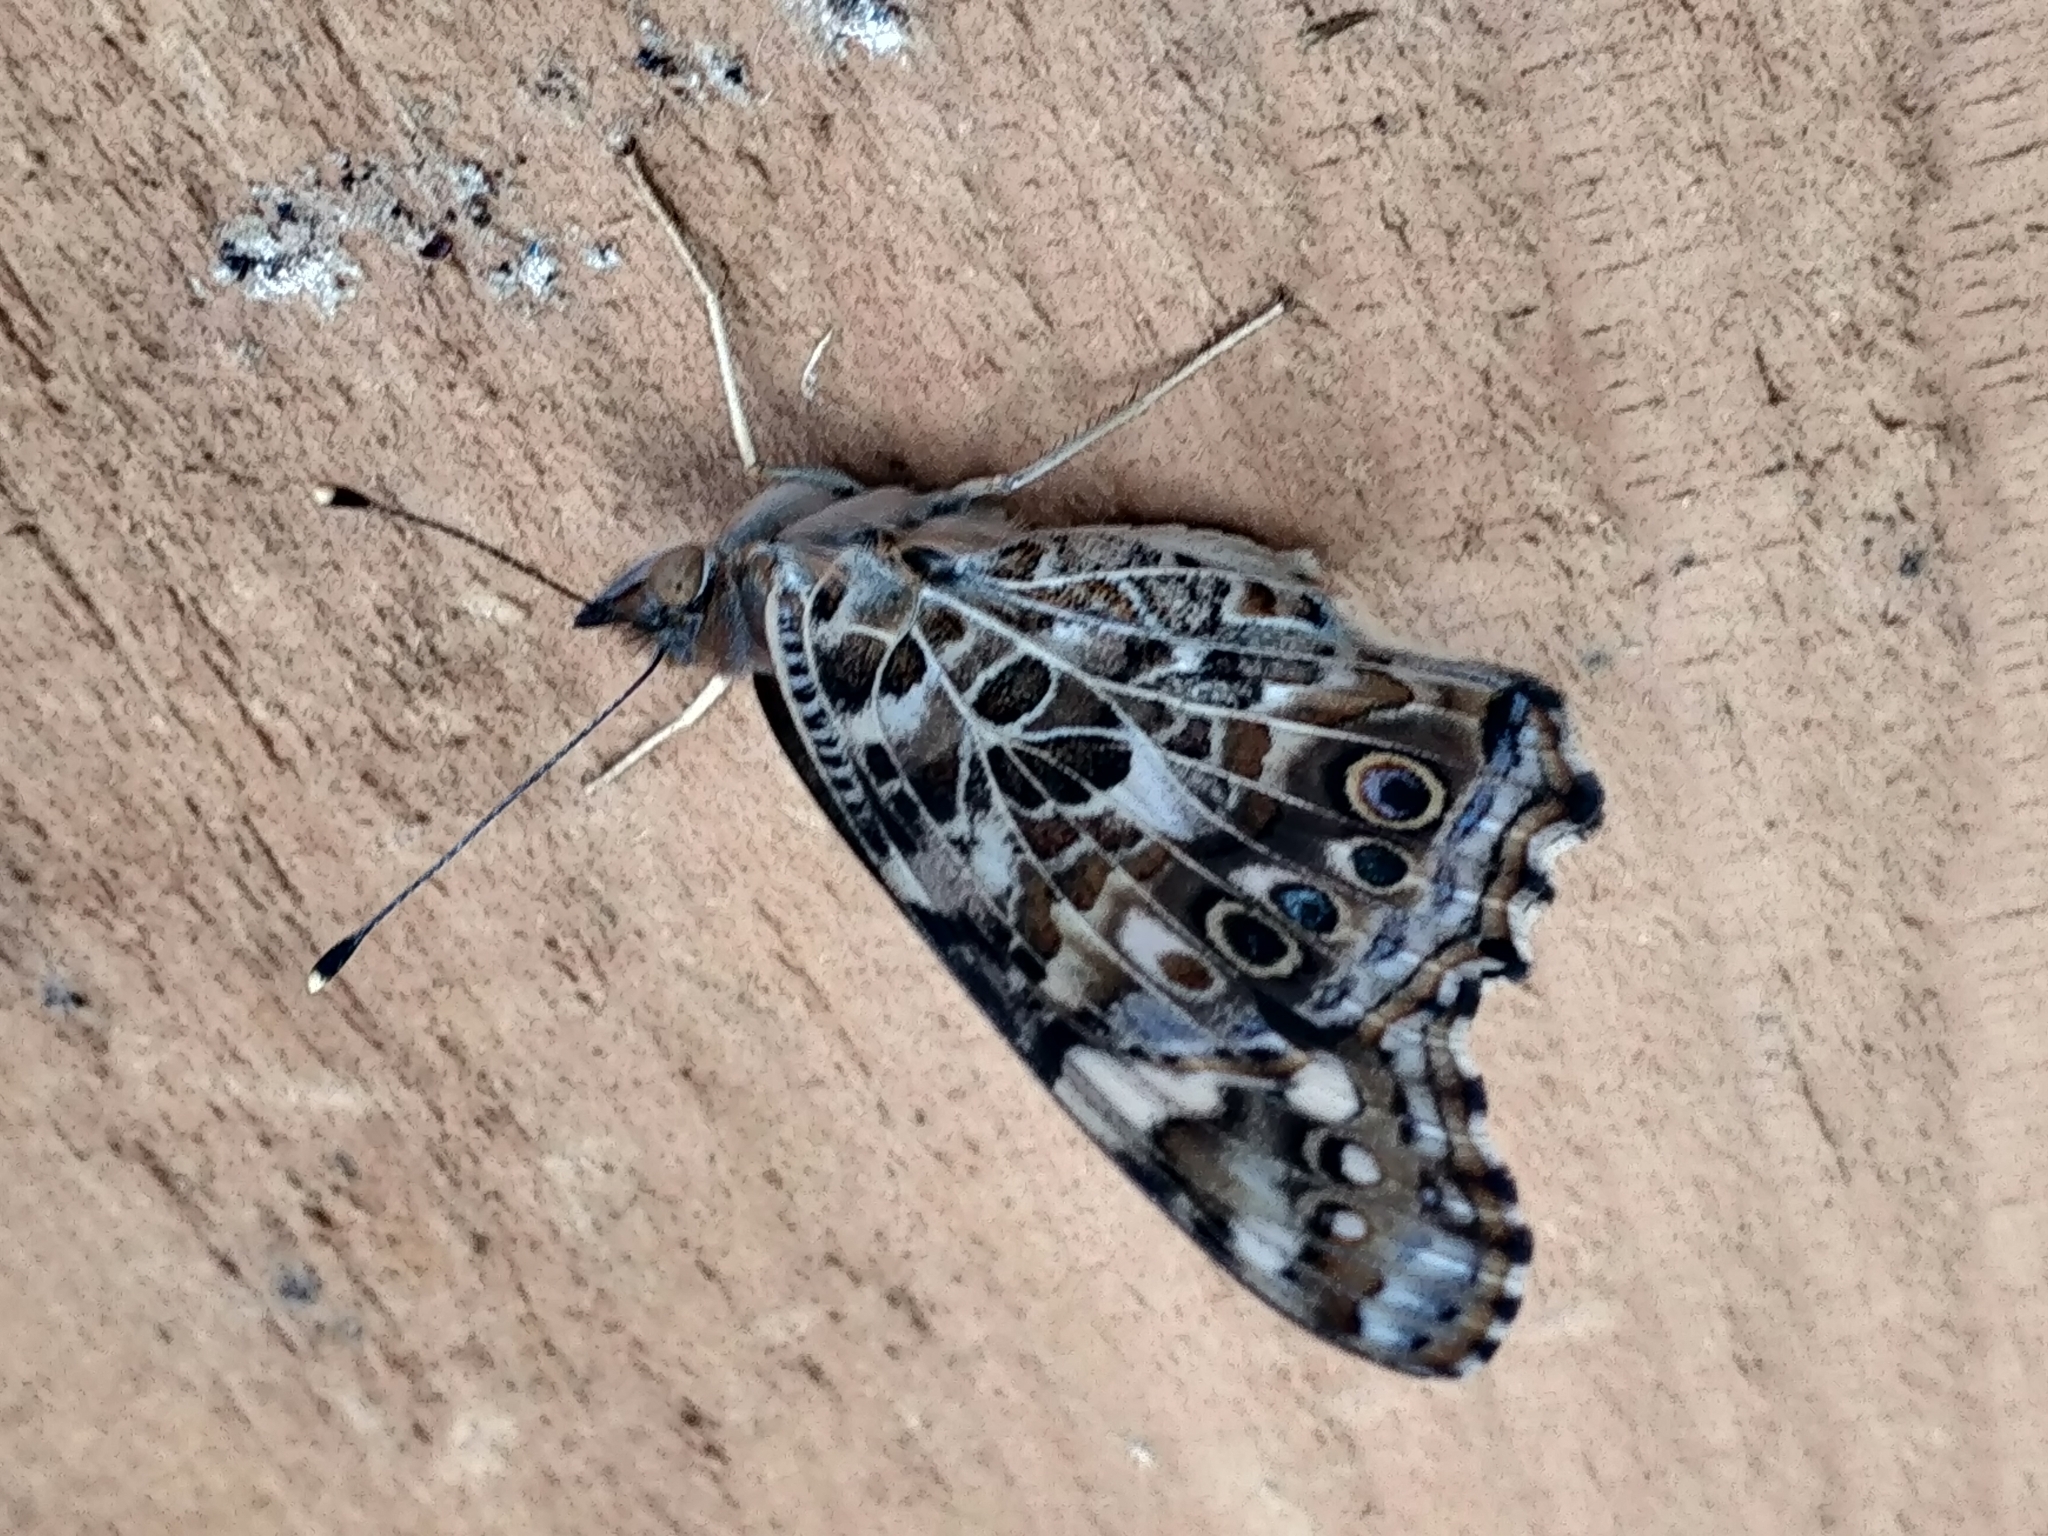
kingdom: Animalia
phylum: Arthropoda
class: Insecta
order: Lepidoptera
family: Nymphalidae
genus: Vanessa
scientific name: Vanessa cardui
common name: Painted lady
